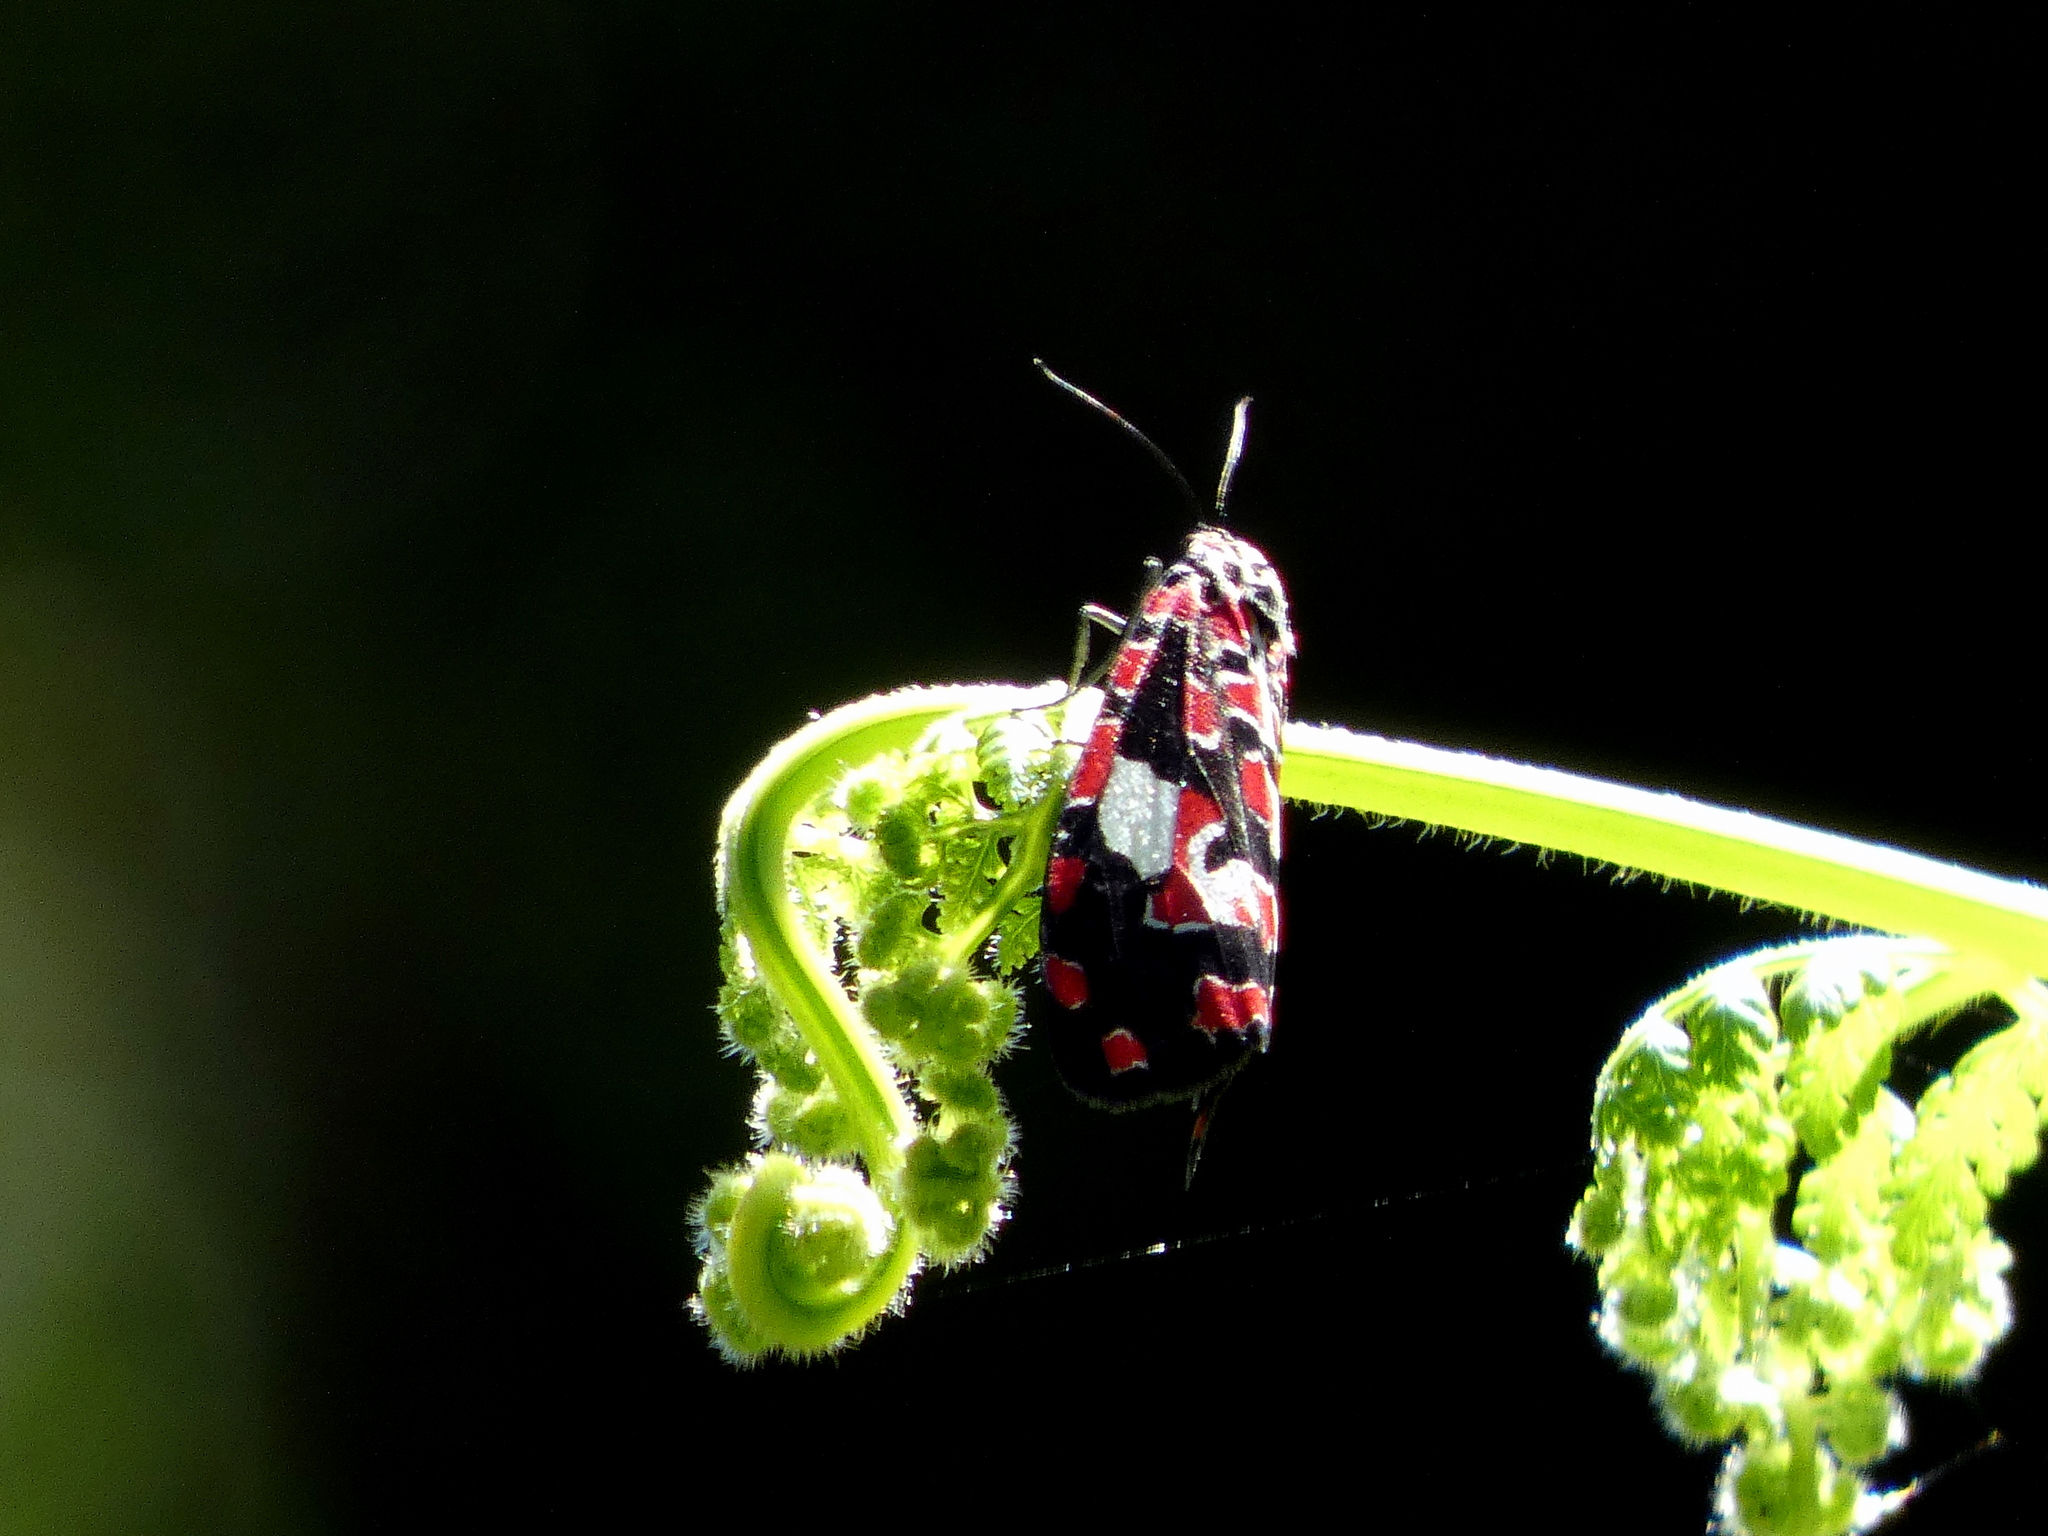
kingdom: Animalia
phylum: Arthropoda
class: Insecta
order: Lepidoptera
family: Erebidae
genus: Utetheisa
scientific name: Utetheisa elata
